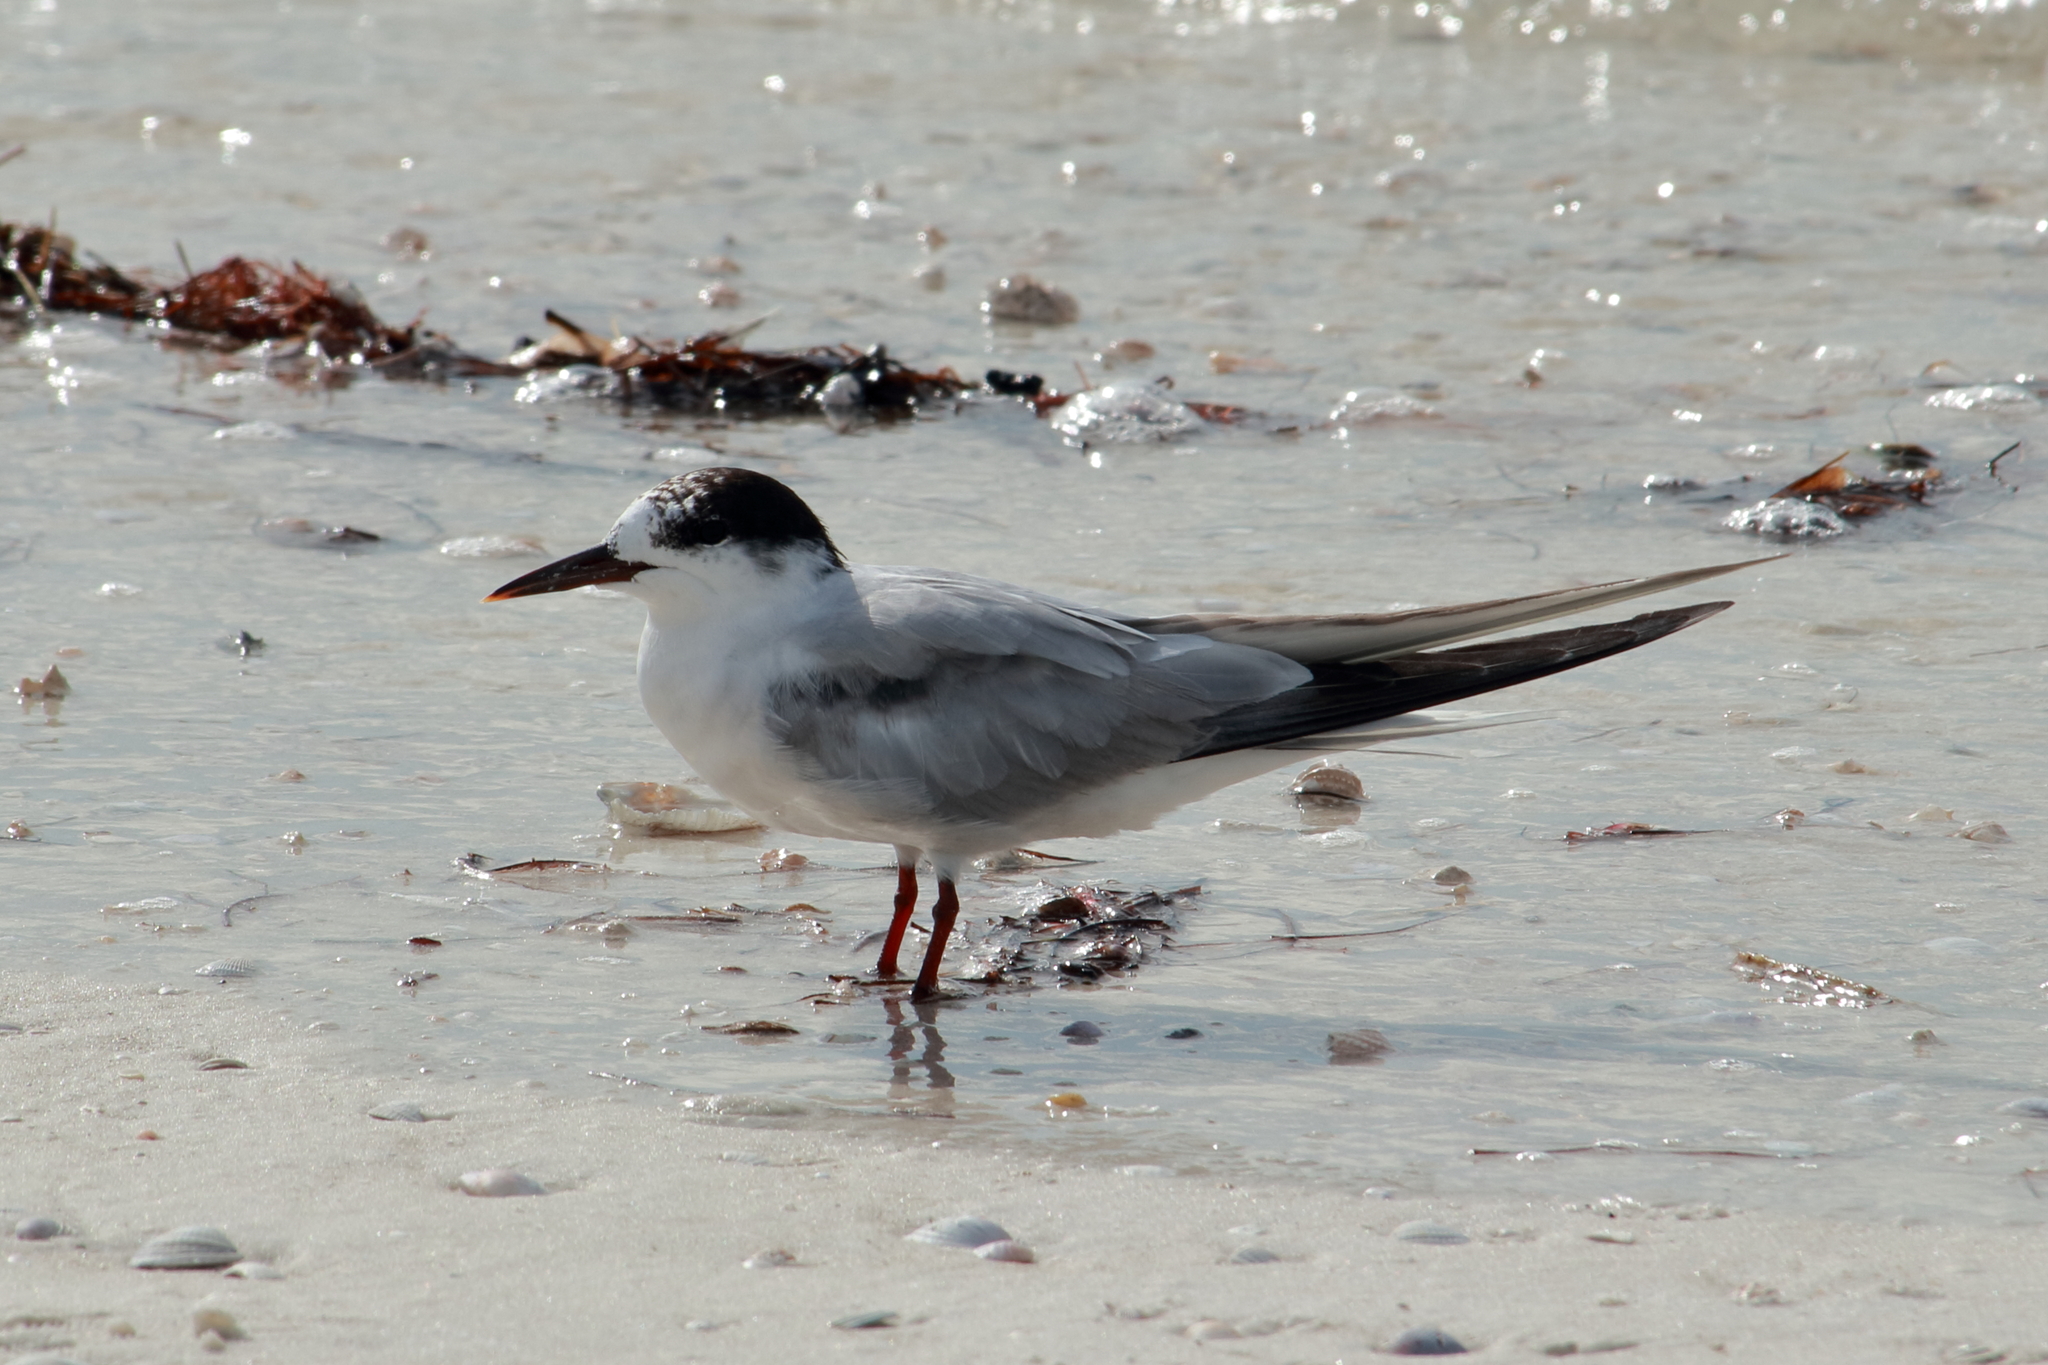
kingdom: Animalia
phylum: Chordata
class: Aves
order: Charadriiformes
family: Laridae
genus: Sterna
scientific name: Sterna hirundo
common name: Common tern
